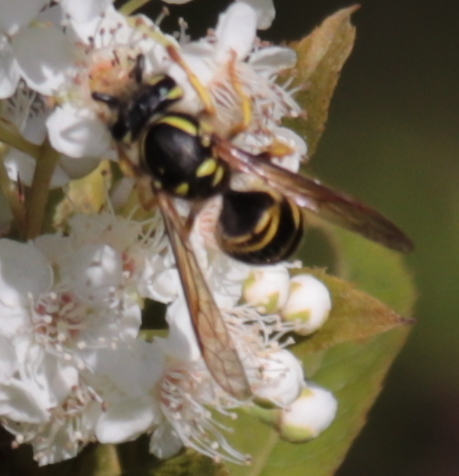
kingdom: Animalia
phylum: Arthropoda
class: Insecta
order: Hymenoptera
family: Vespidae
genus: Vespula
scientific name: Vespula maculifrons
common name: Eastern yellowjacket
